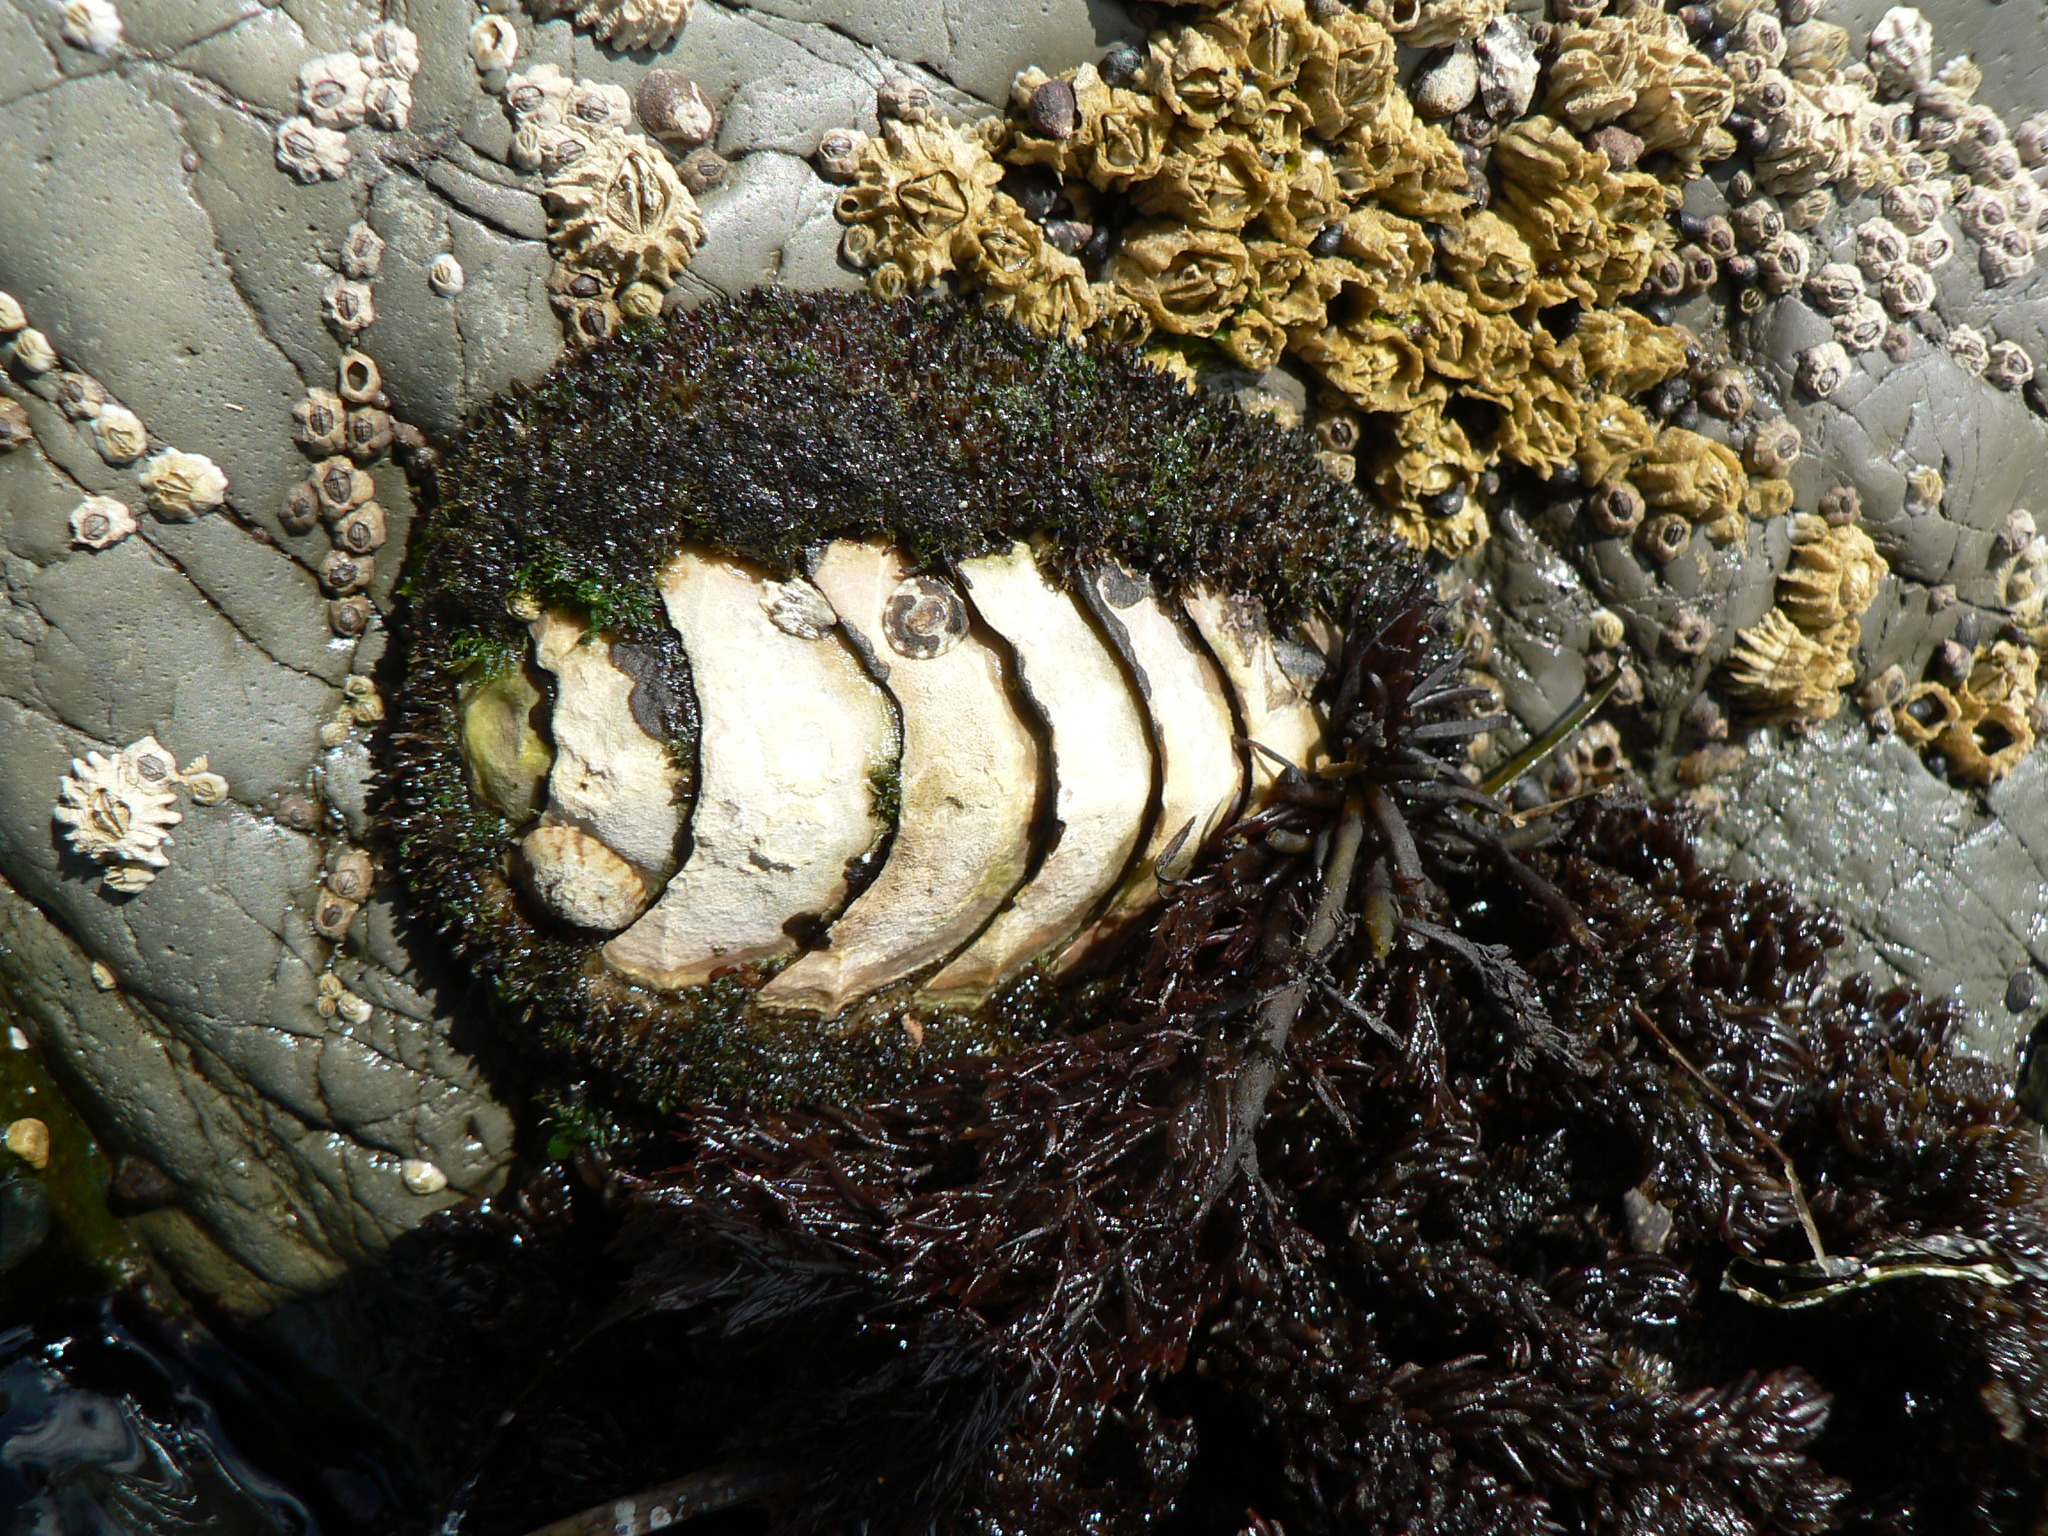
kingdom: Animalia
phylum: Mollusca
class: Polyplacophora
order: Chitonida
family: Mopaliidae
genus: Mopalia
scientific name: Mopalia muscosa
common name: Mossy chiton
